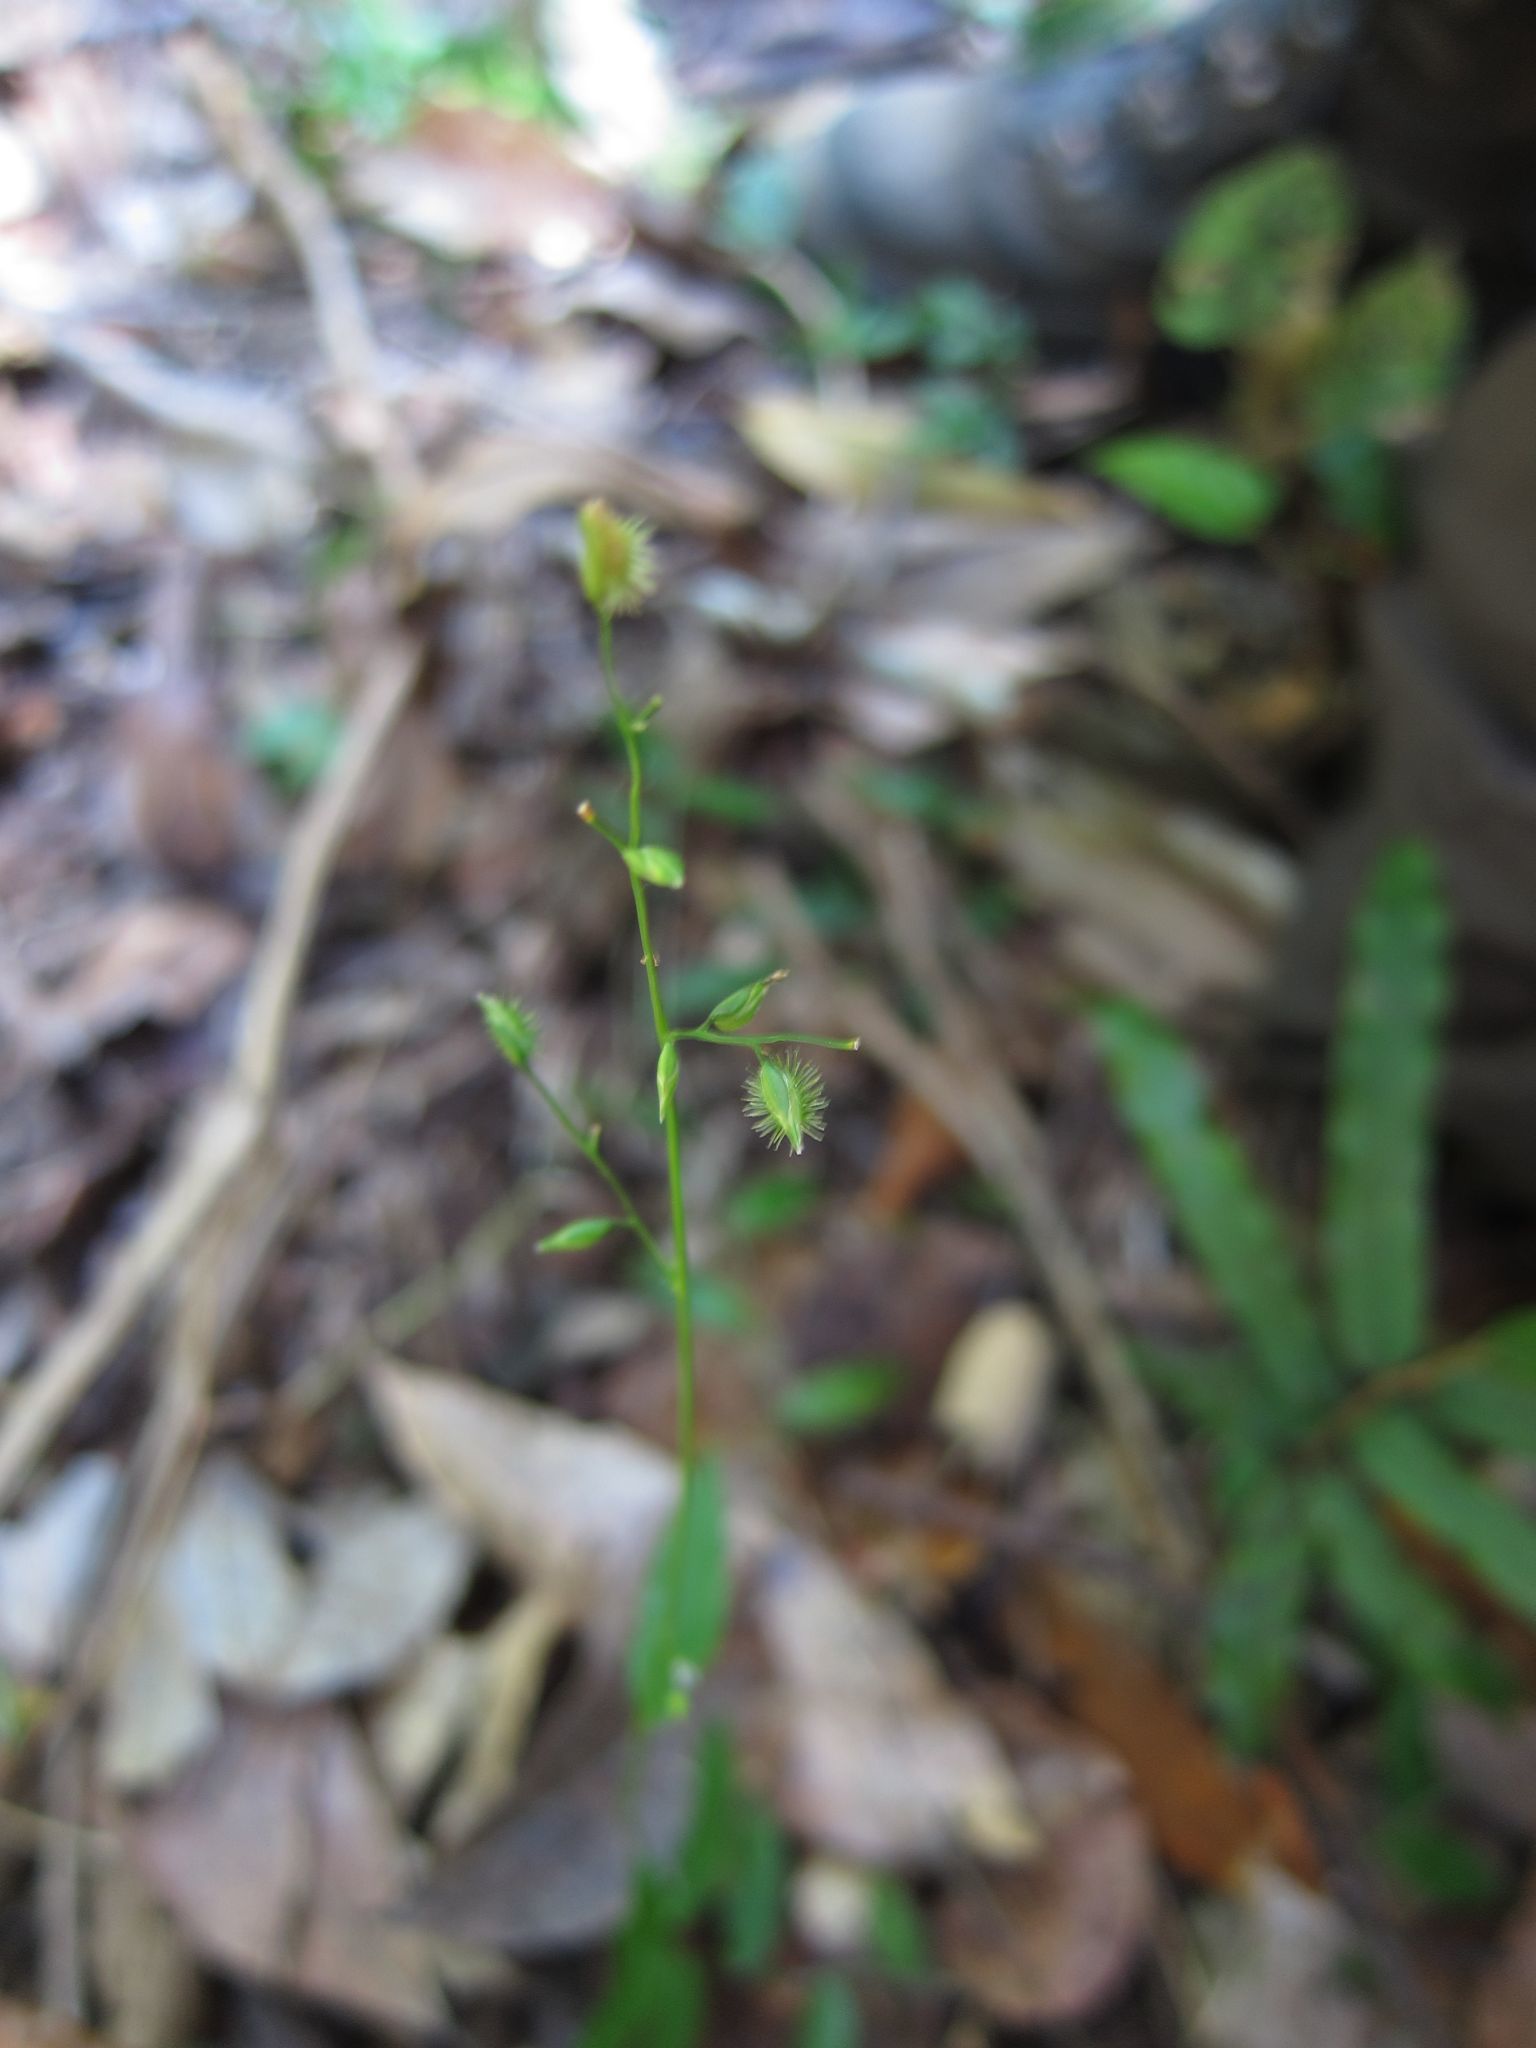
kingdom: Plantae
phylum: Tracheophyta
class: Liliopsida
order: Poales
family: Poaceae
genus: Pseudechinolaena
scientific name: Pseudechinolaena polystachya
